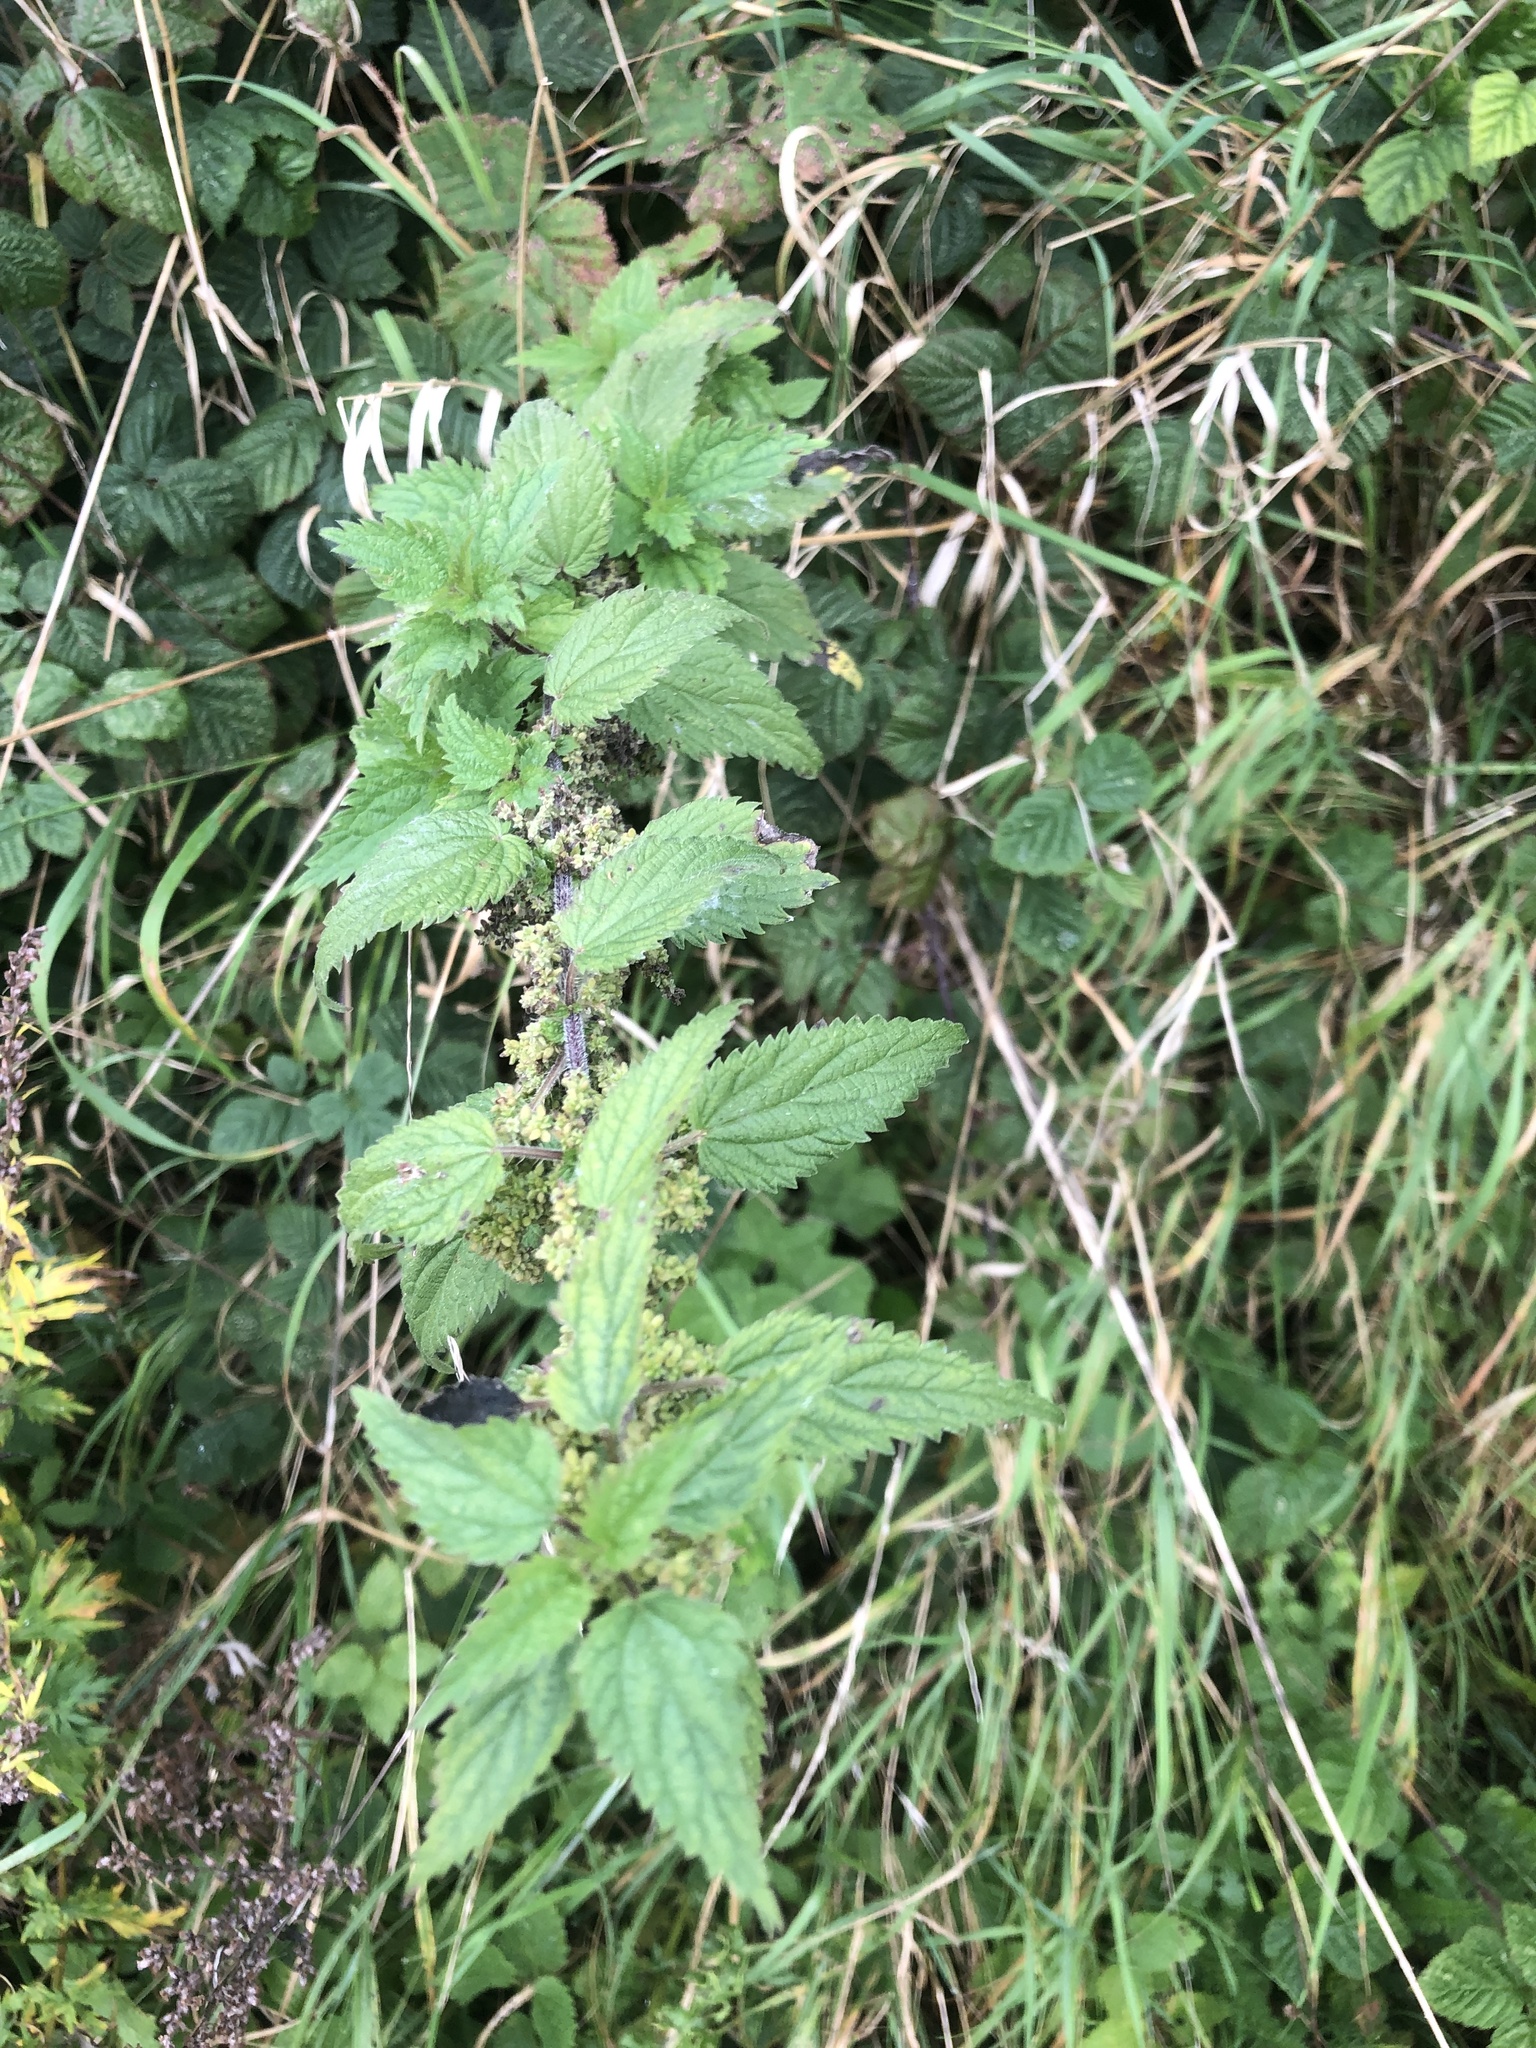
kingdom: Plantae
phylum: Tracheophyta
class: Magnoliopsida
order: Rosales
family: Urticaceae
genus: Urtica
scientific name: Urtica dioica
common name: Common nettle
